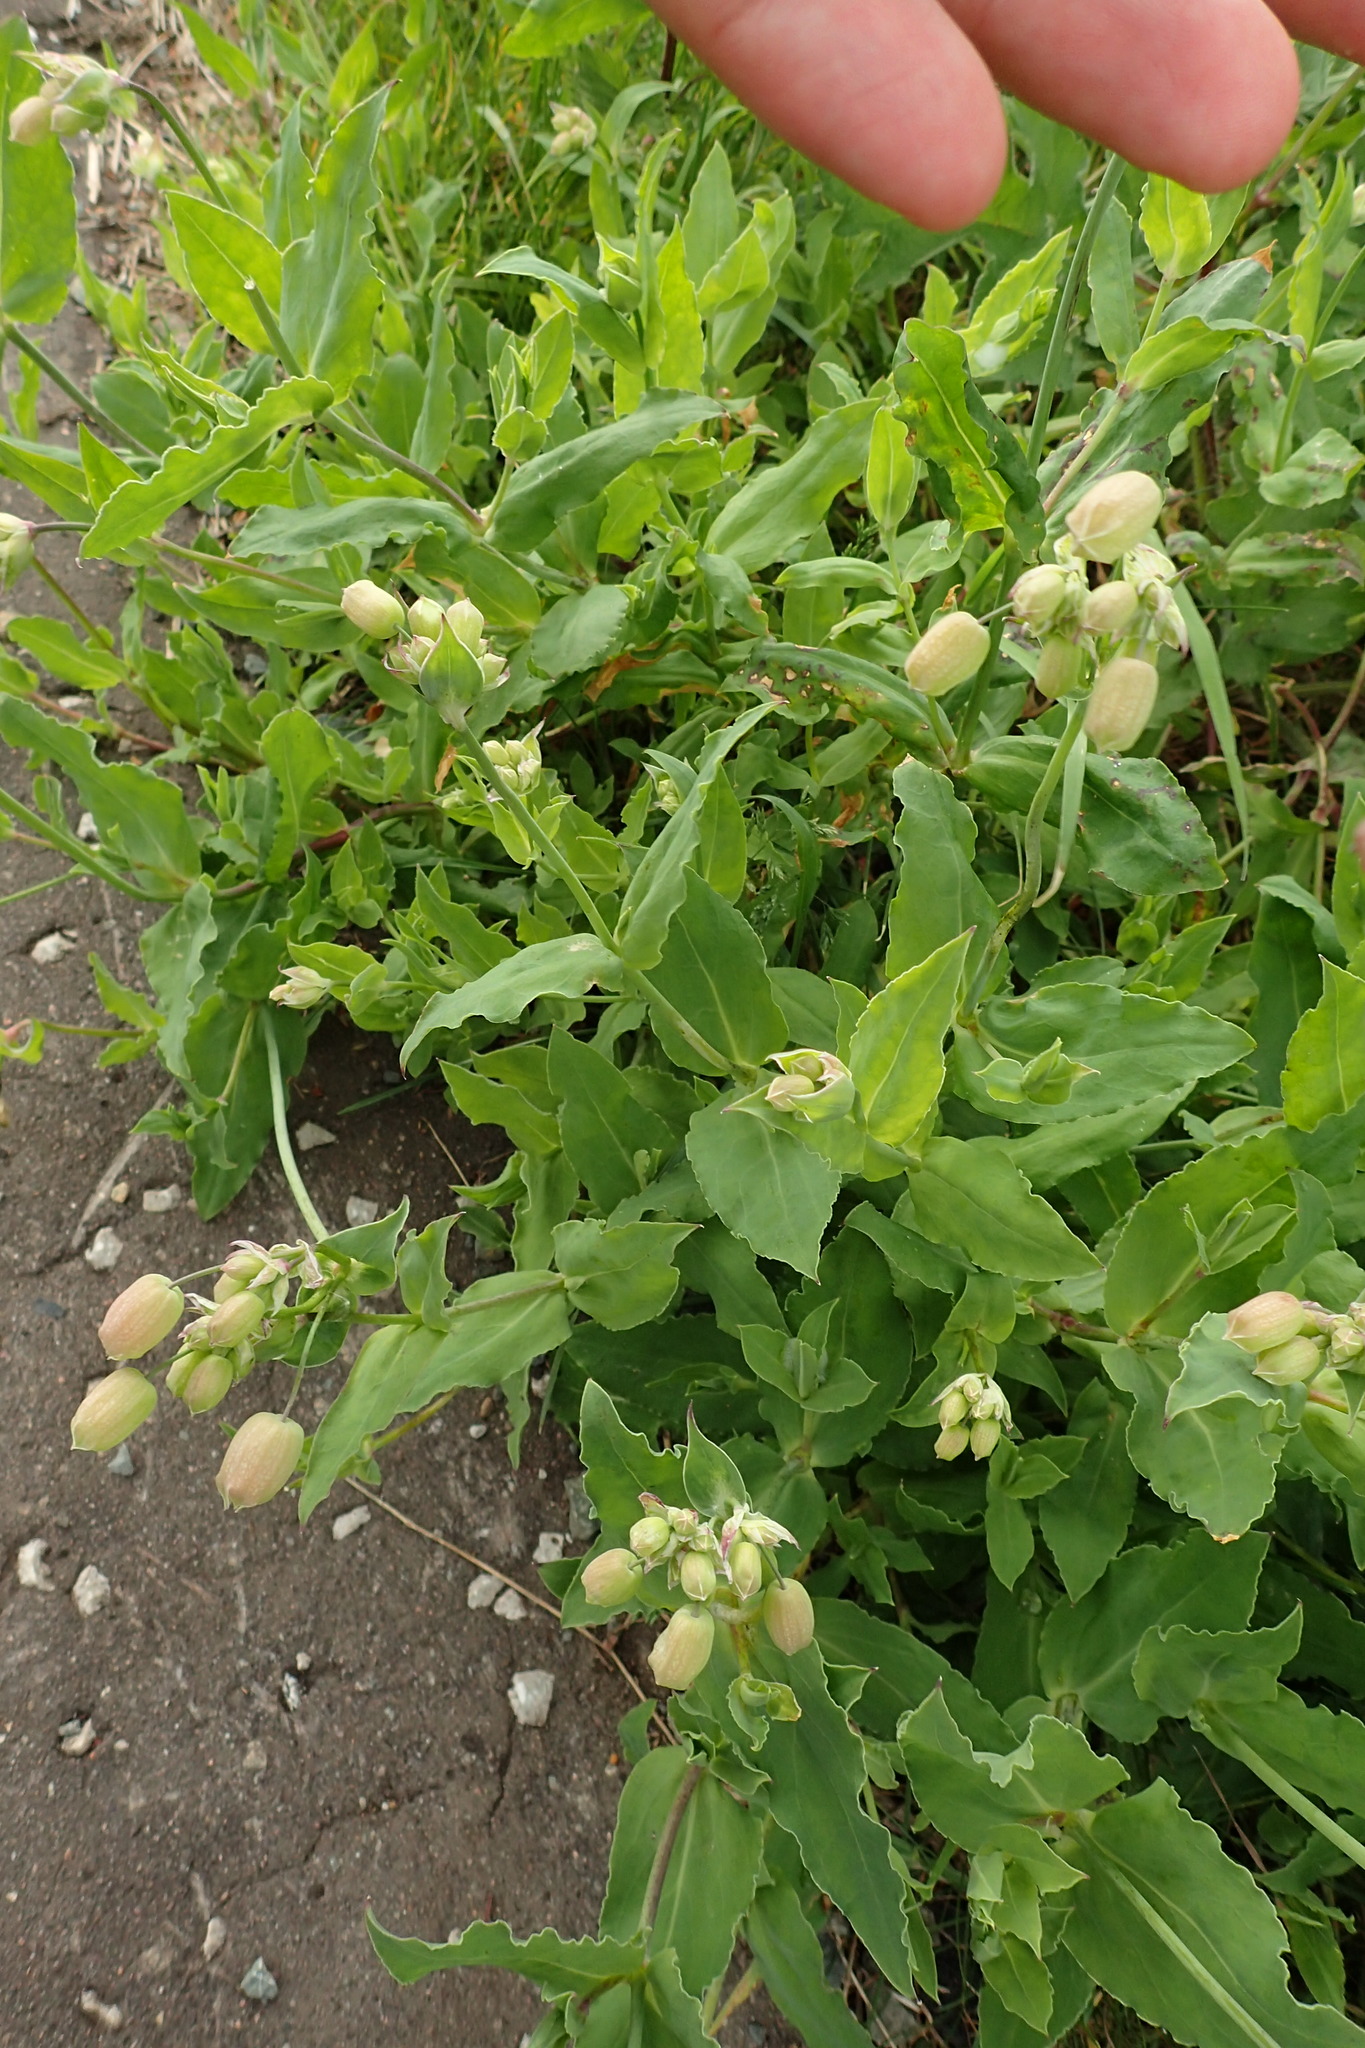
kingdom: Plantae
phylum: Tracheophyta
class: Magnoliopsida
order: Caryophyllales
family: Caryophyllaceae
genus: Silene
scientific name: Silene vulgaris
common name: Bladder campion
